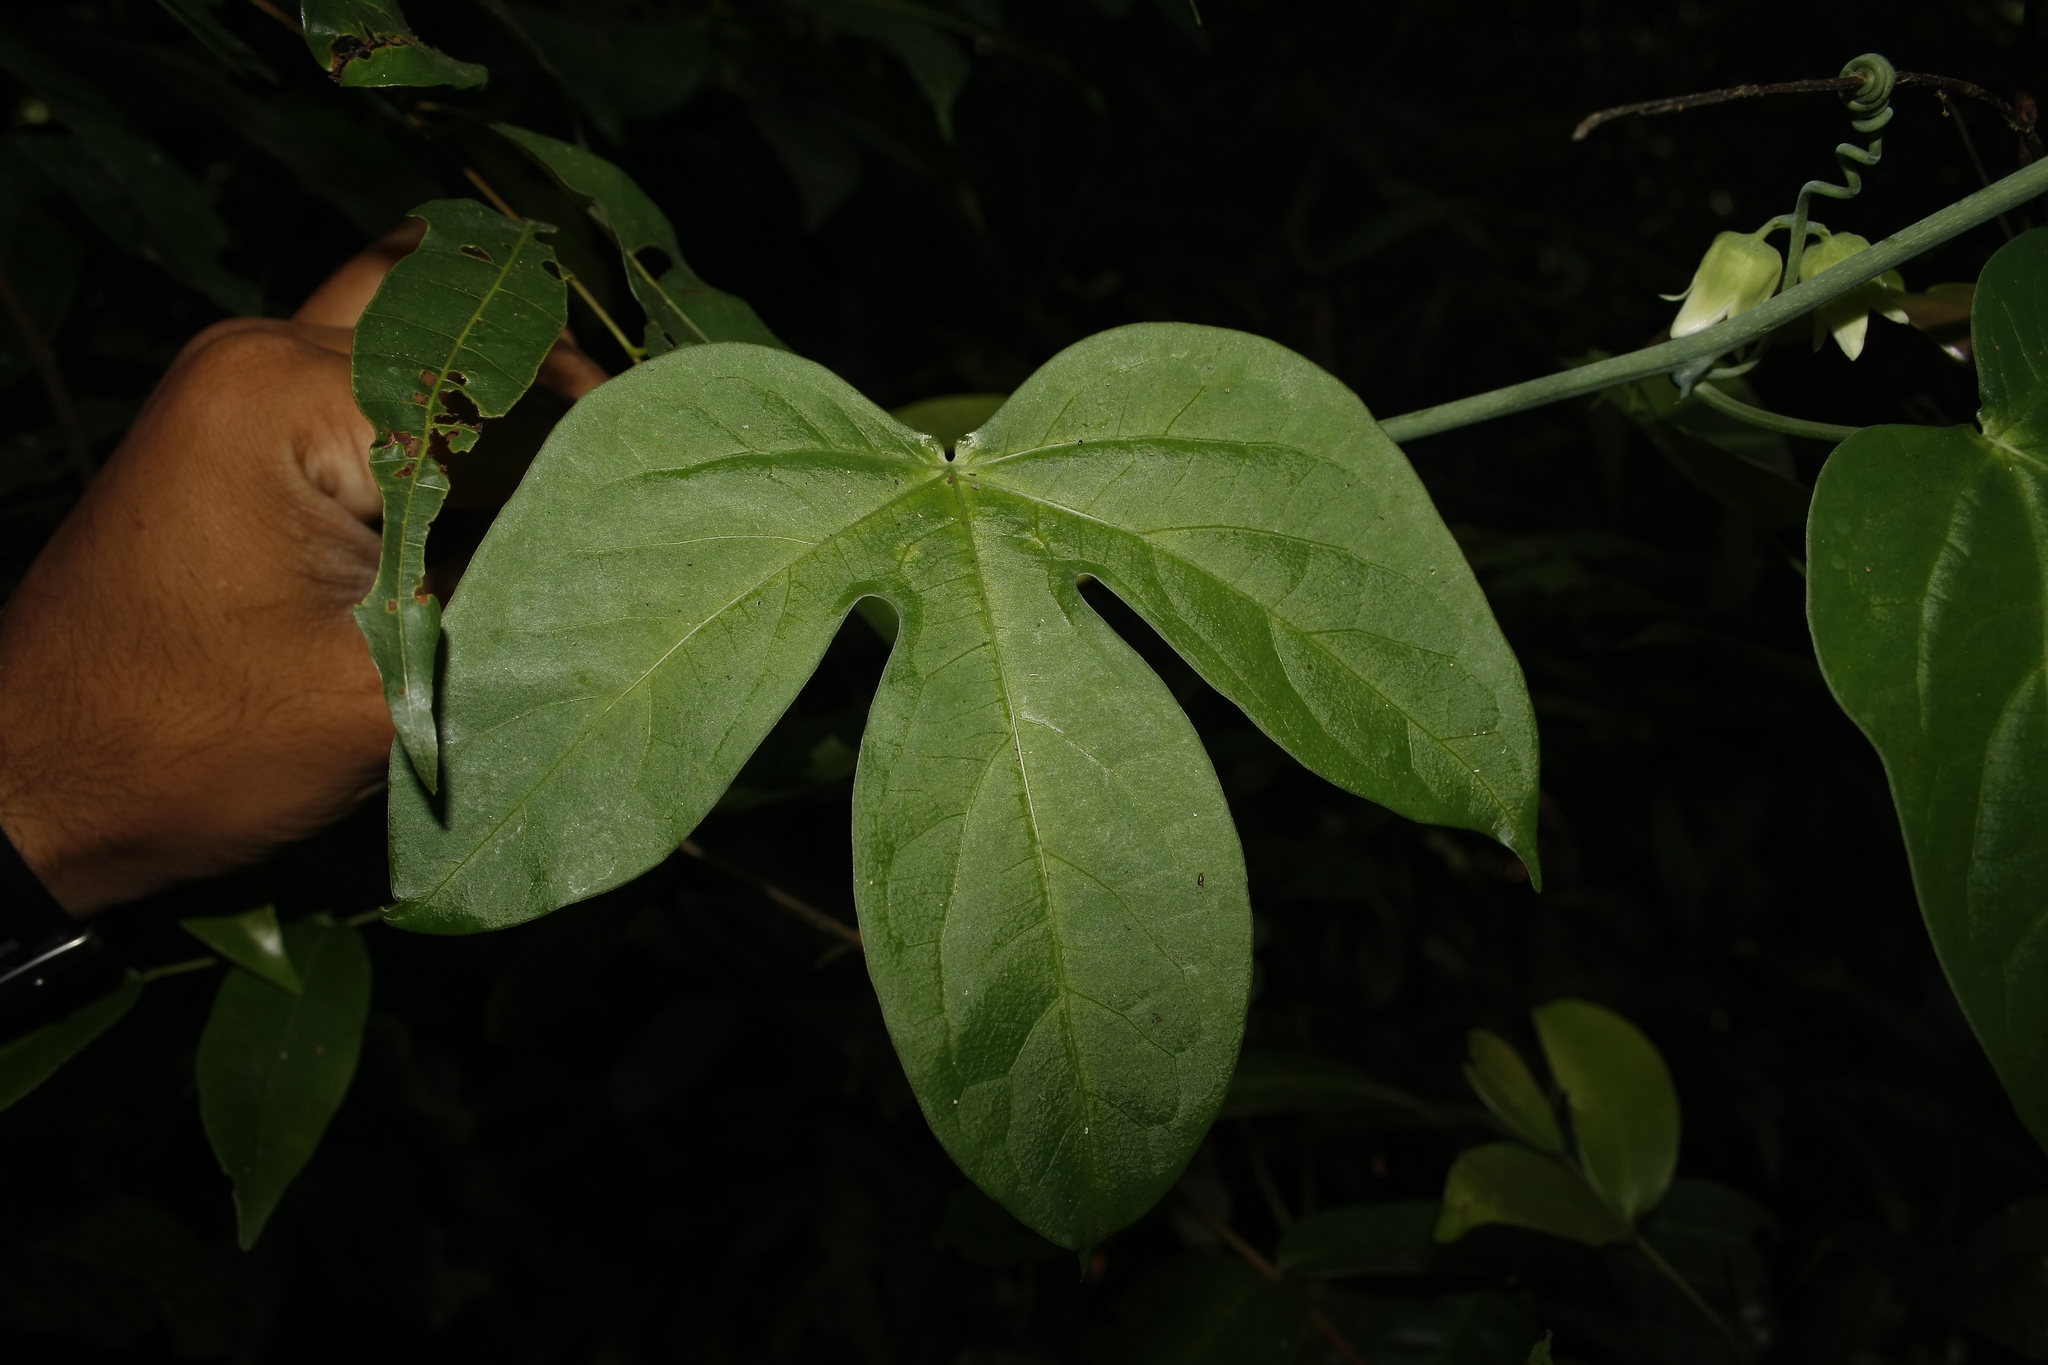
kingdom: Plantae
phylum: Tracheophyta
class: Magnoliopsida
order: Malpighiales
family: Passifloraceae
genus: Adenia
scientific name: Adenia hondala
